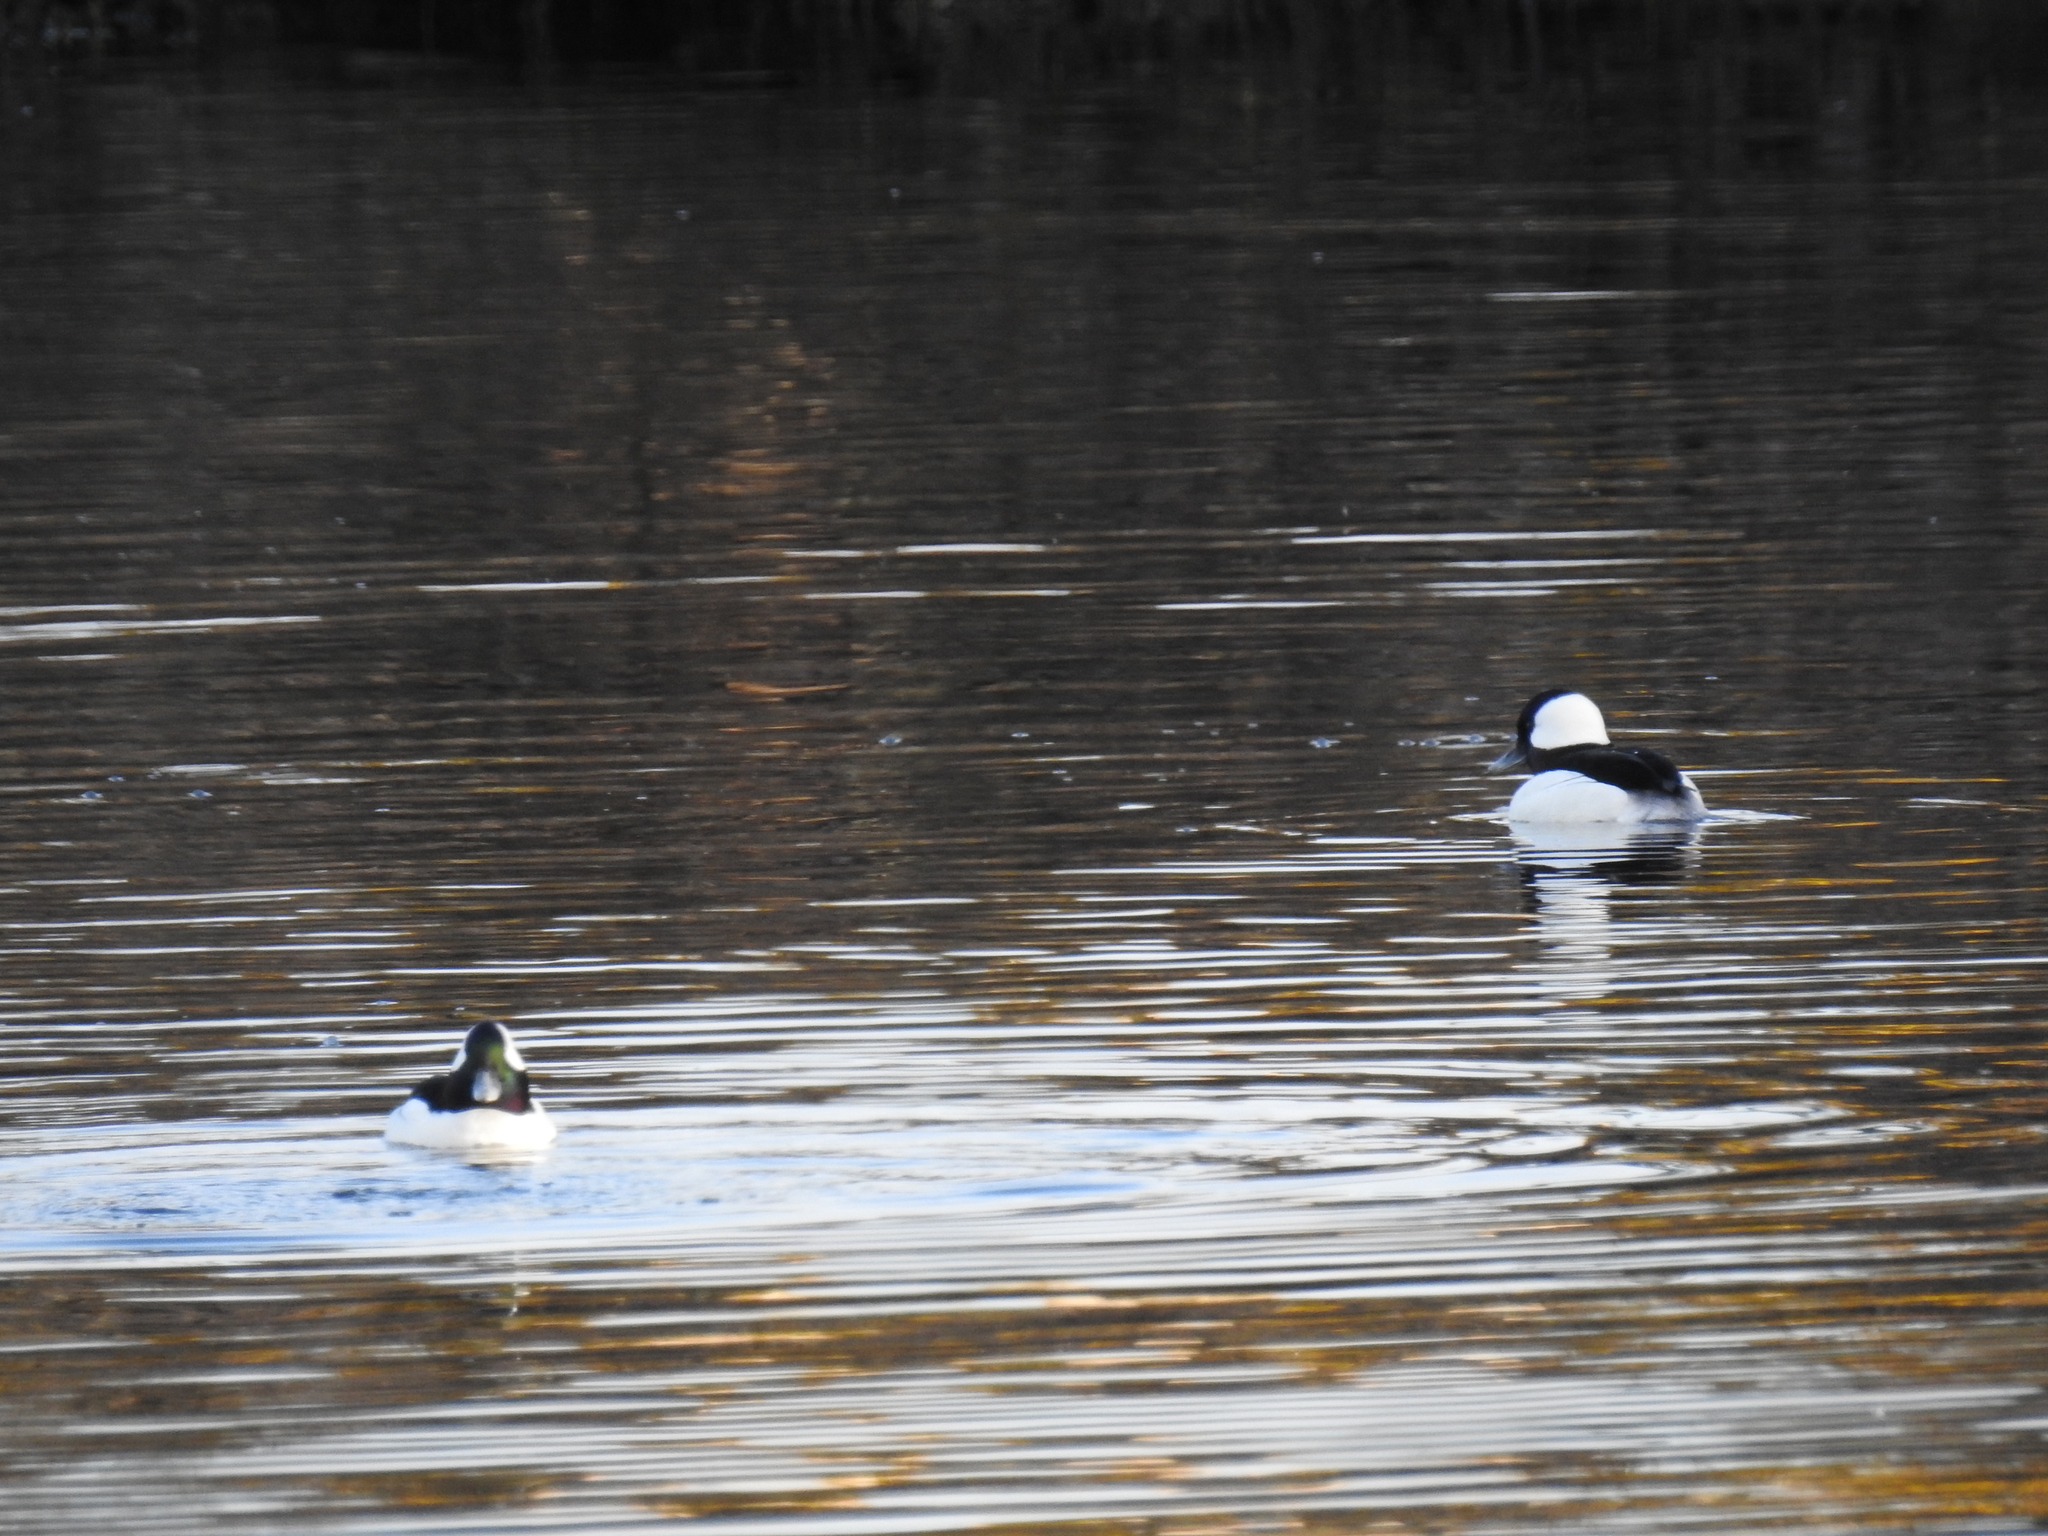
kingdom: Animalia
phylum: Chordata
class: Aves
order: Anseriformes
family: Anatidae
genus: Bucephala
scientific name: Bucephala albeola
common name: Bufflehead
